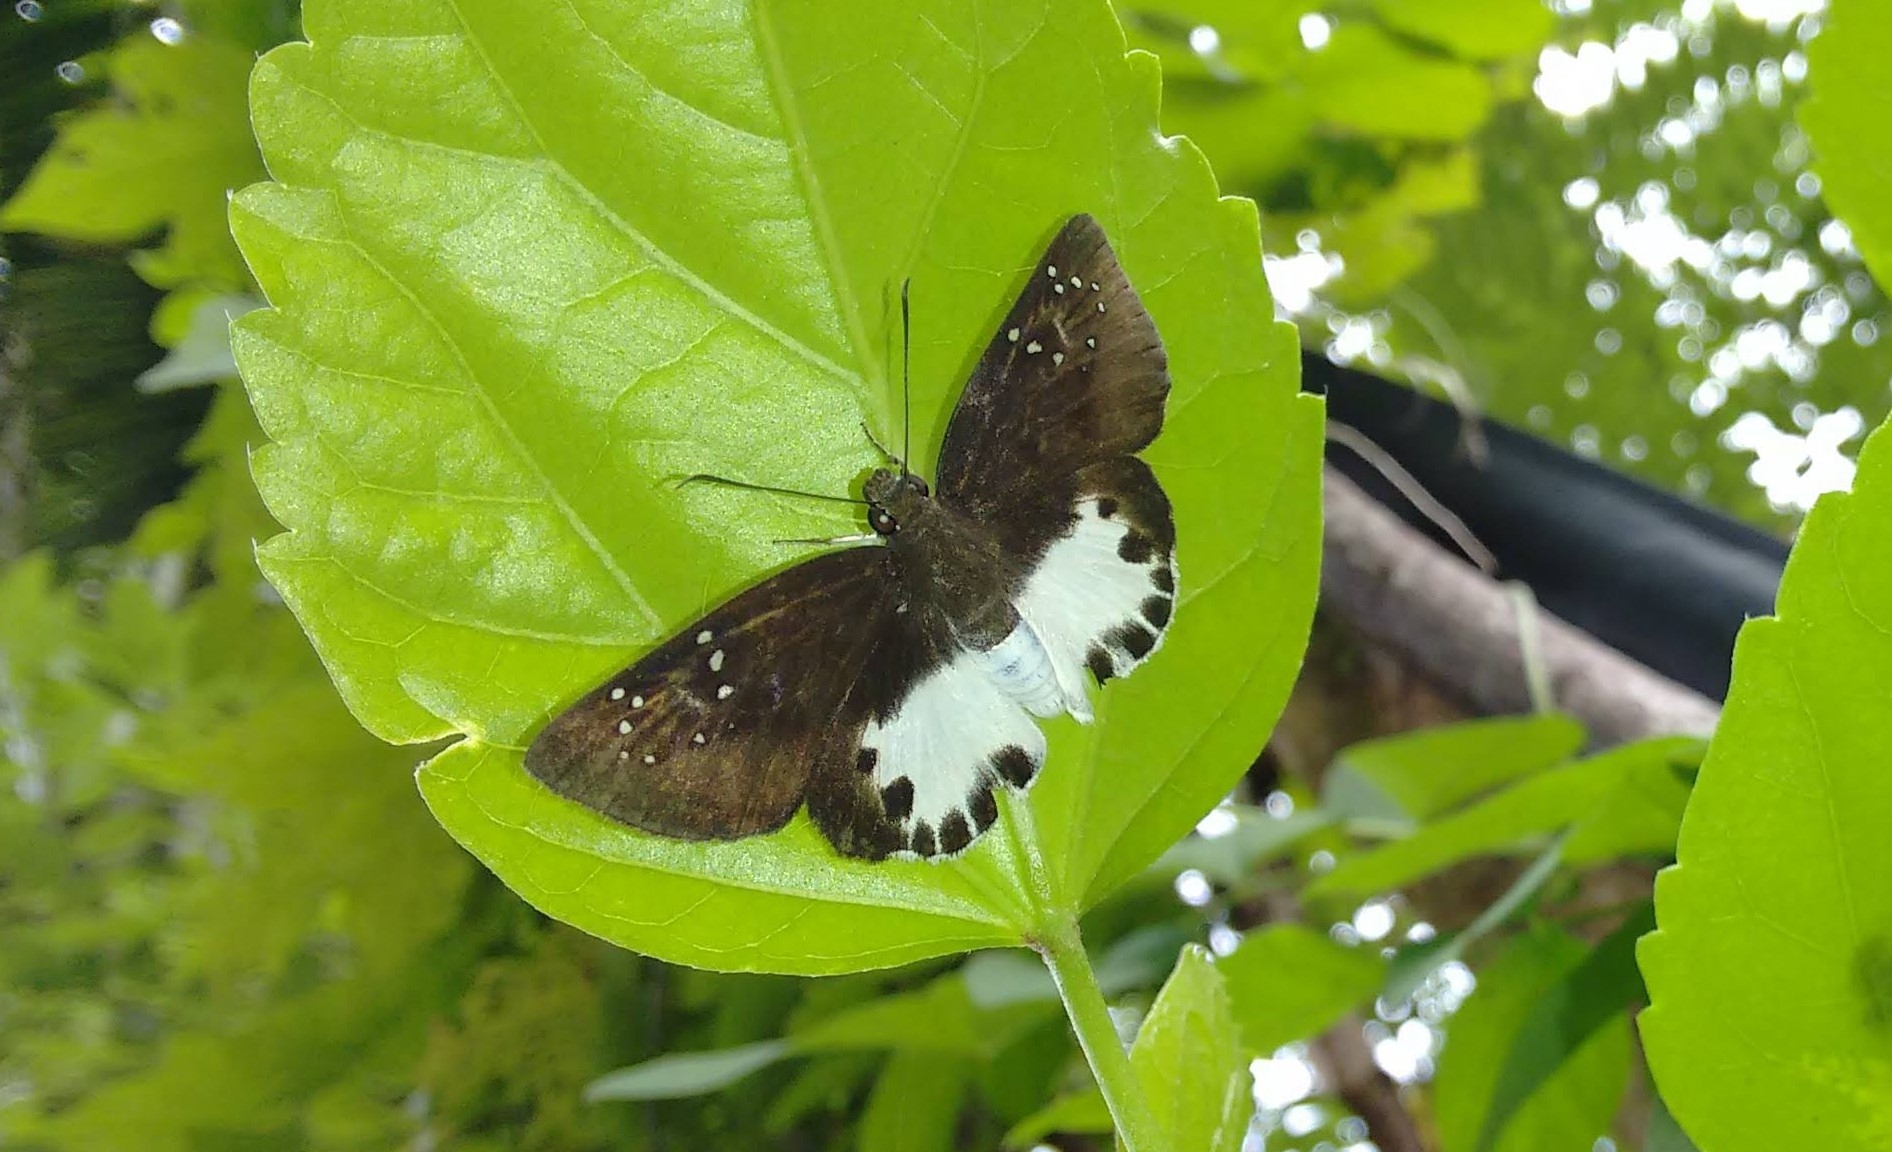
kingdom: Animalia
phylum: Arthropoda
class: Insecta
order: Lepidoptera
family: Hesperiidae
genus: Tagiades
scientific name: Tagiades litigiosa
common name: Water snow flat
